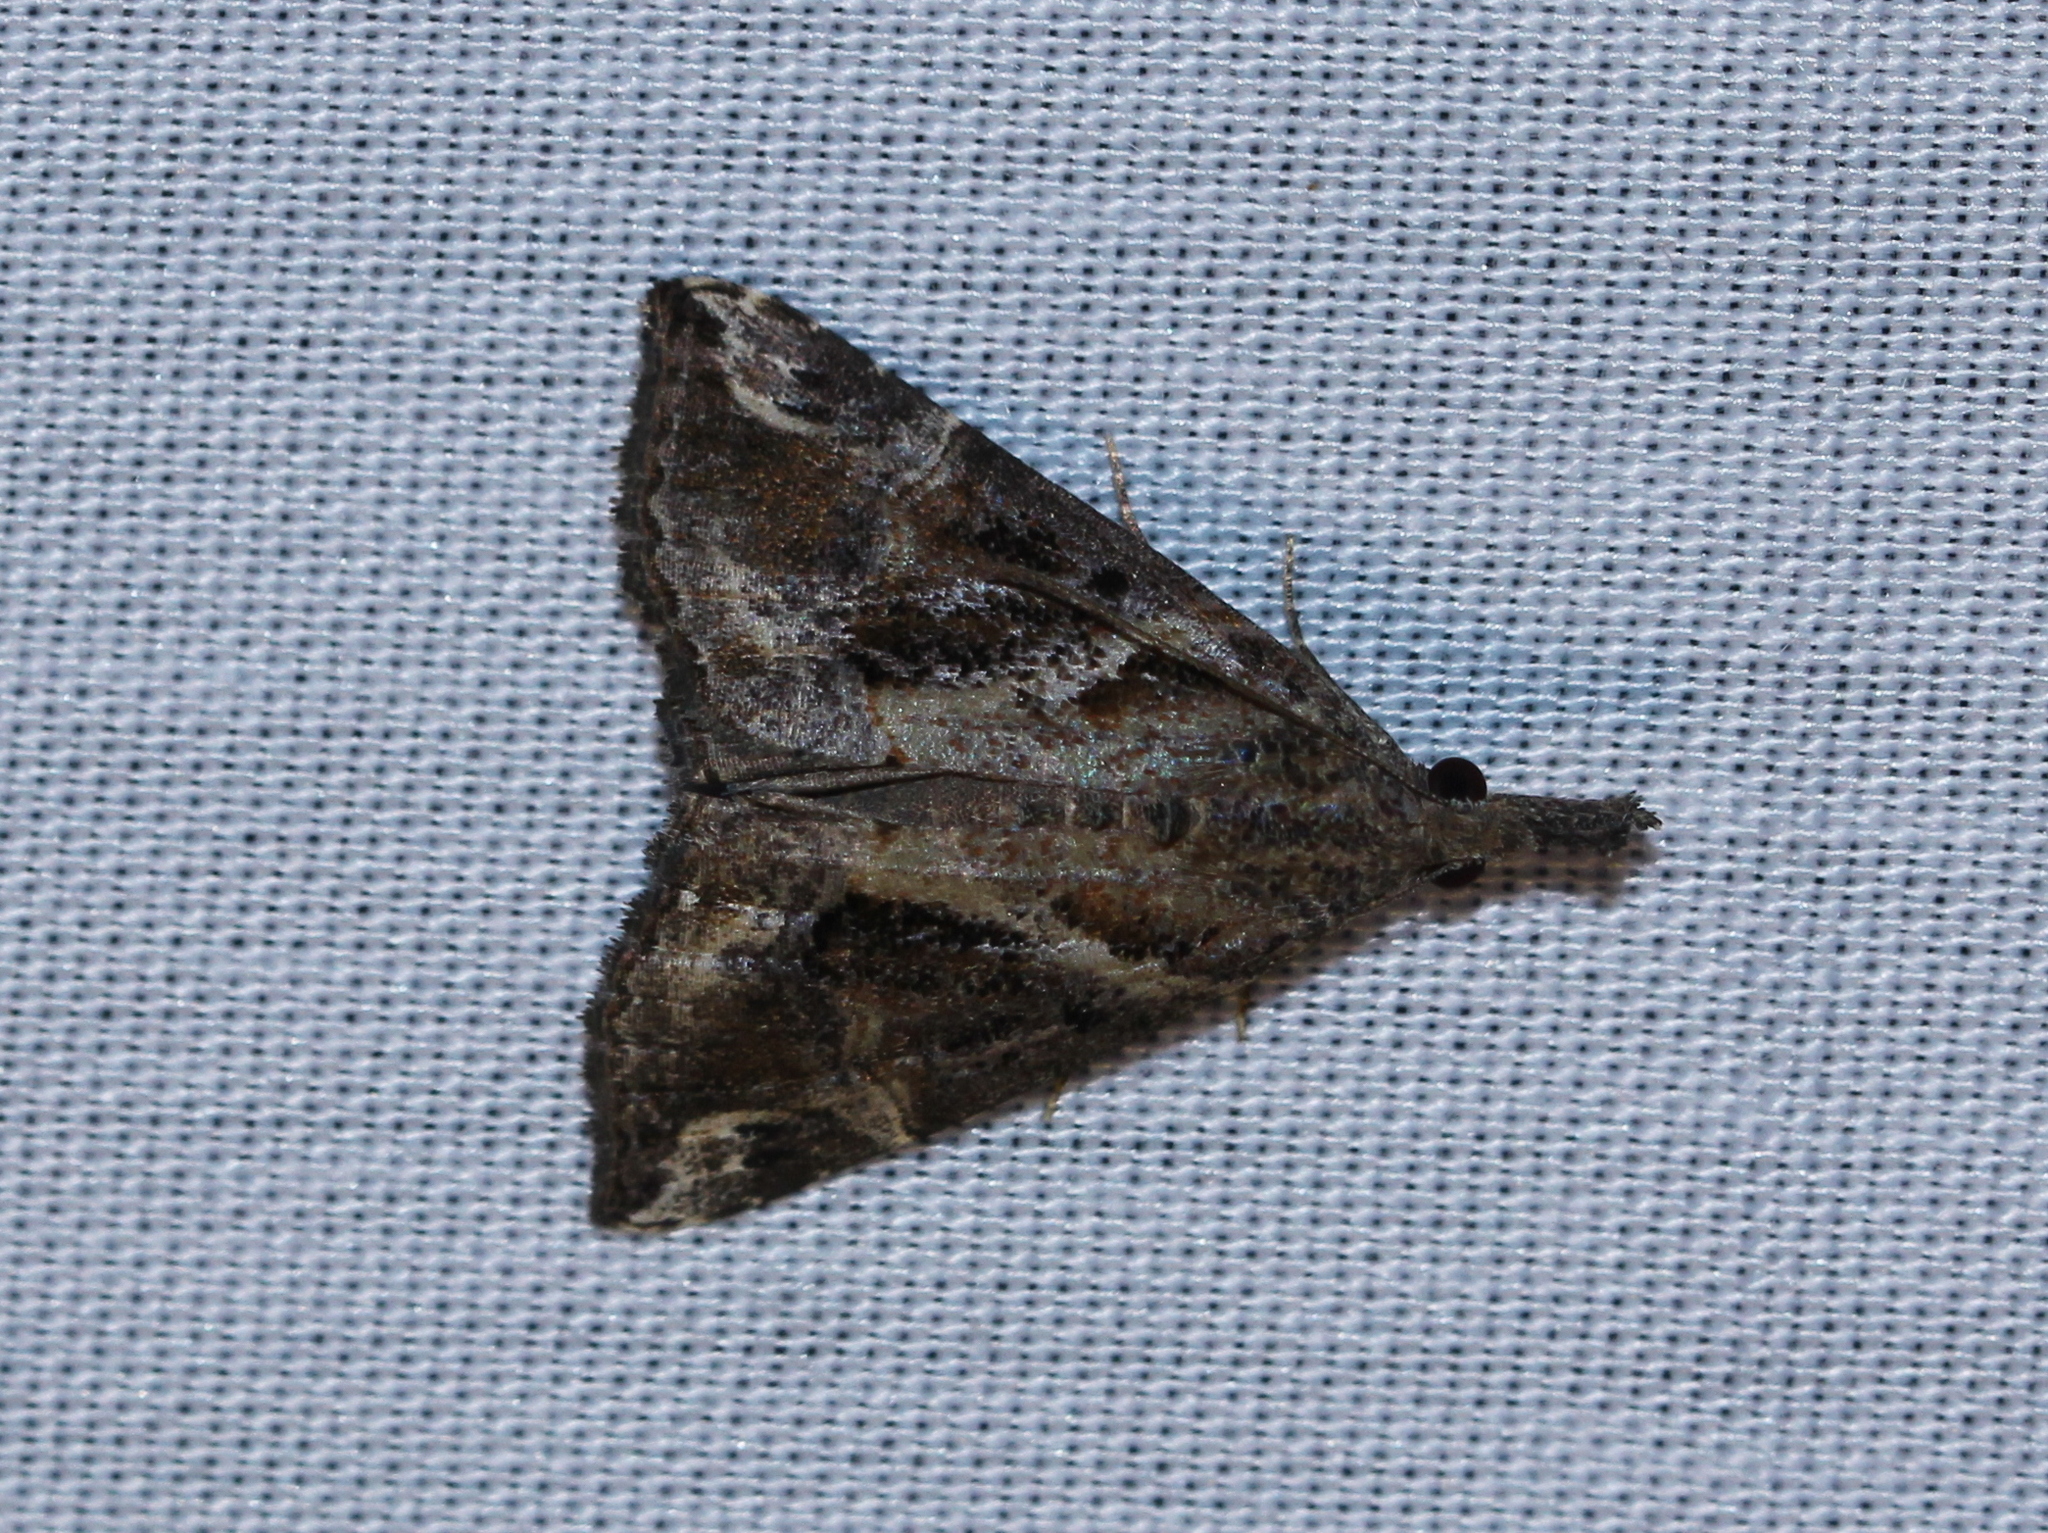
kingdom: Animalia
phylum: Arthropoda
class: Insecta
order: Lepidoptera
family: Erebidae
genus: Hypena
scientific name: Hypena commixtalis
